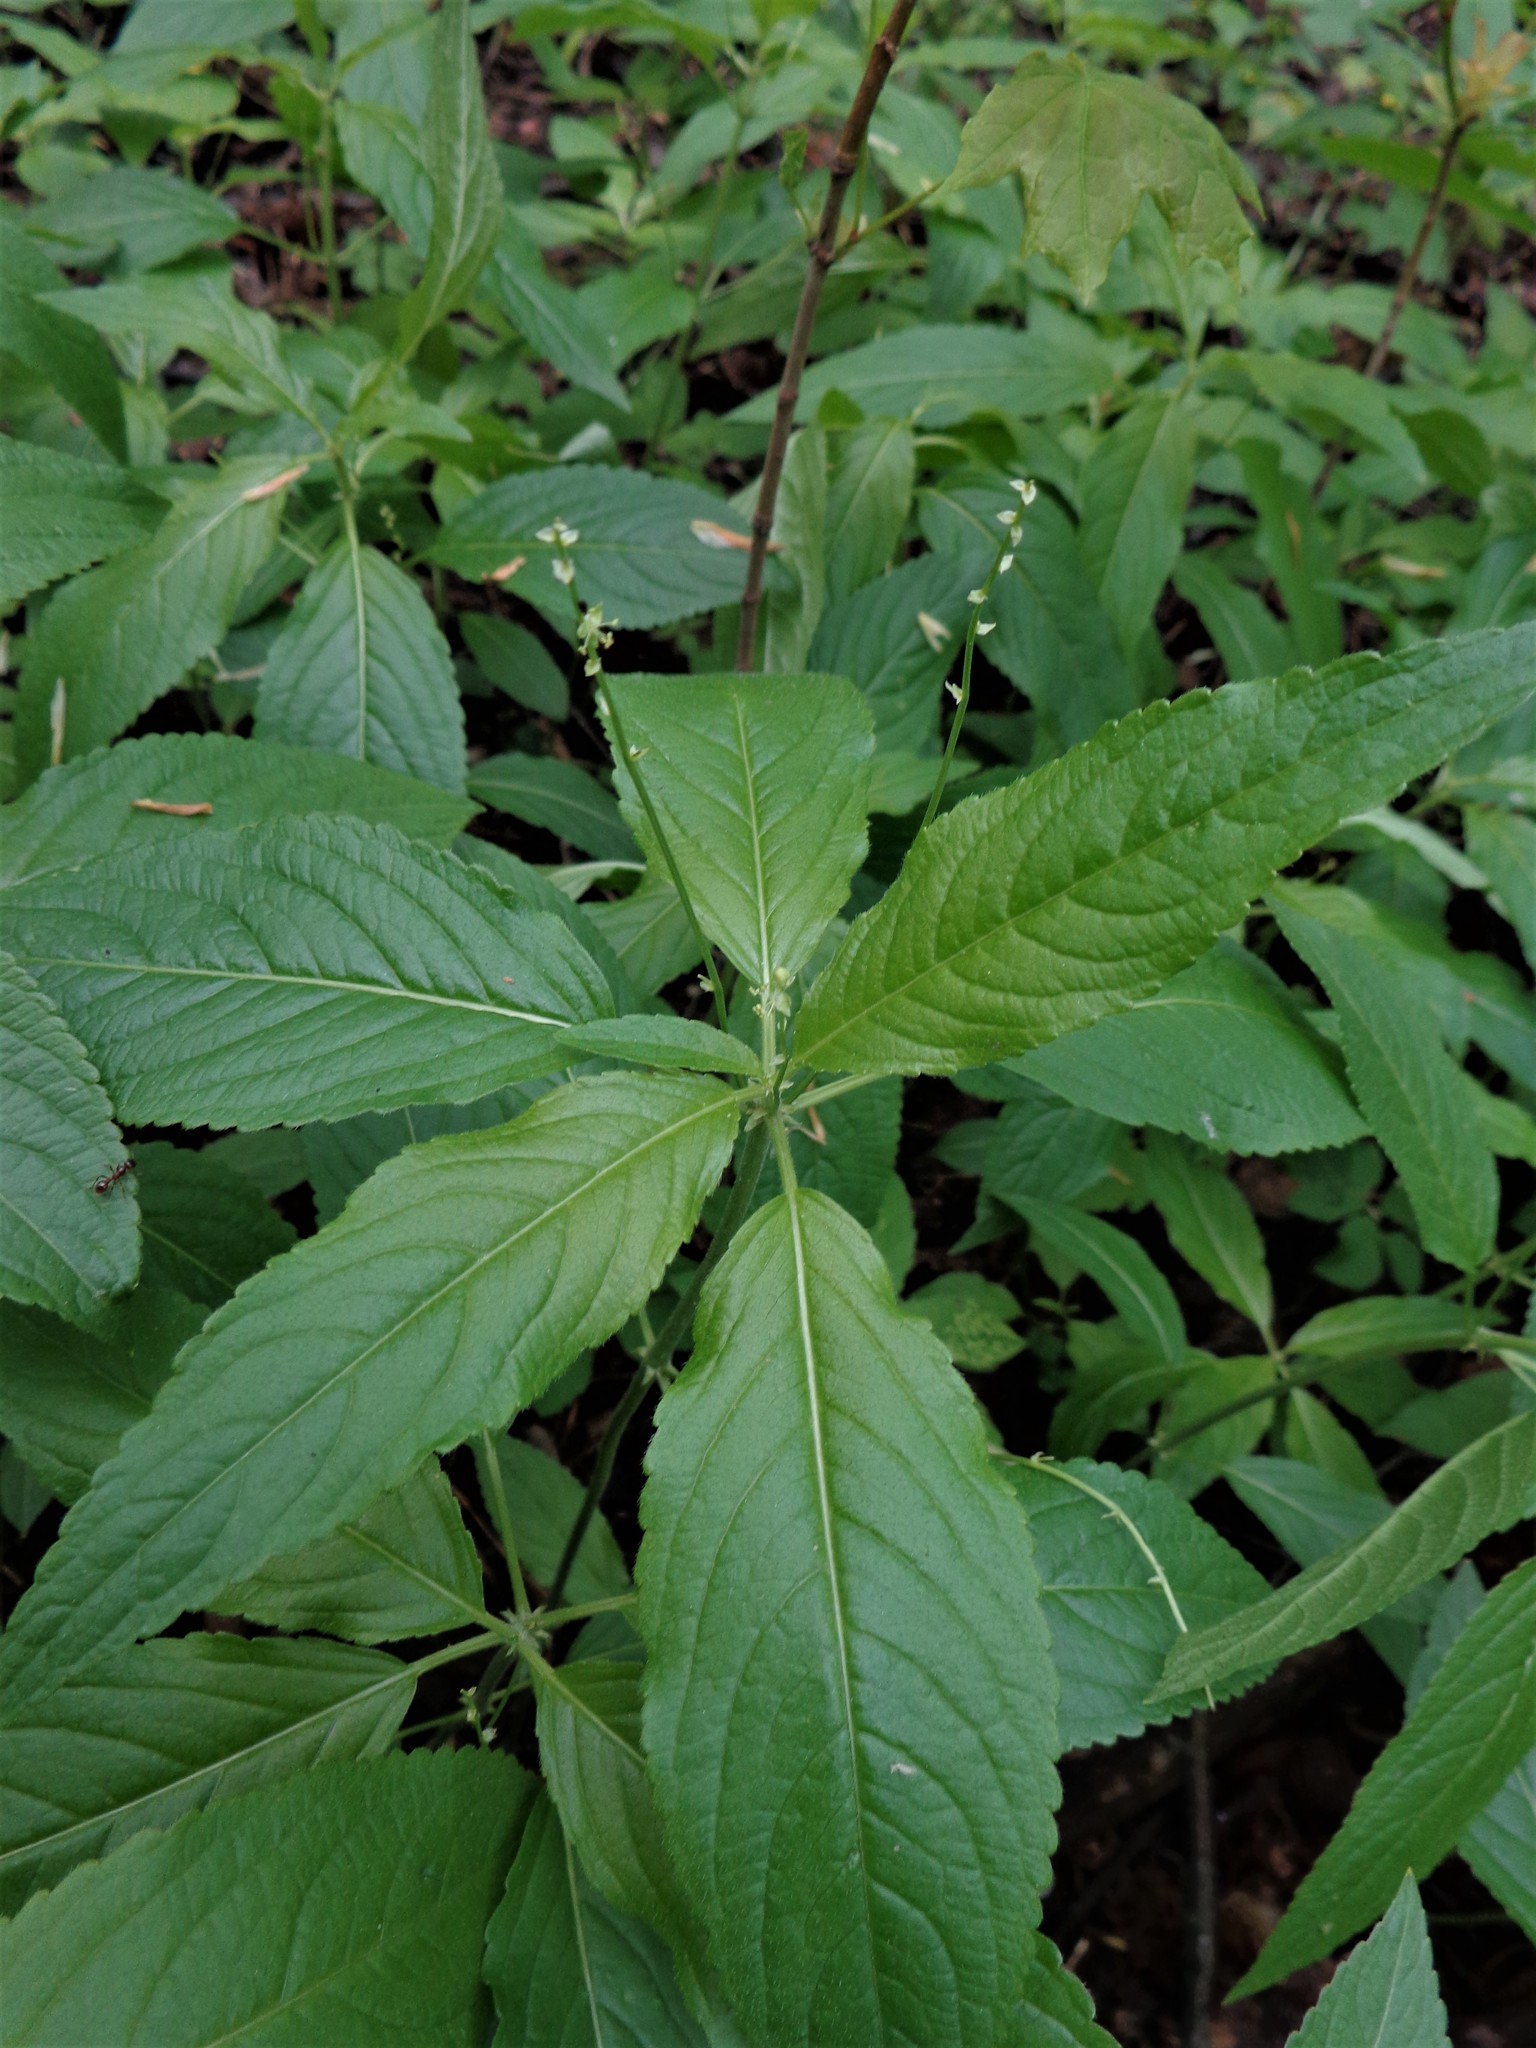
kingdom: Plantae
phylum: Tracheophyta
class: Magnoliopsida
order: Malpighiales
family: Euphorbiaceae
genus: Mercurialis
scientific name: Mercurialis perennis
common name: Dog mercury
